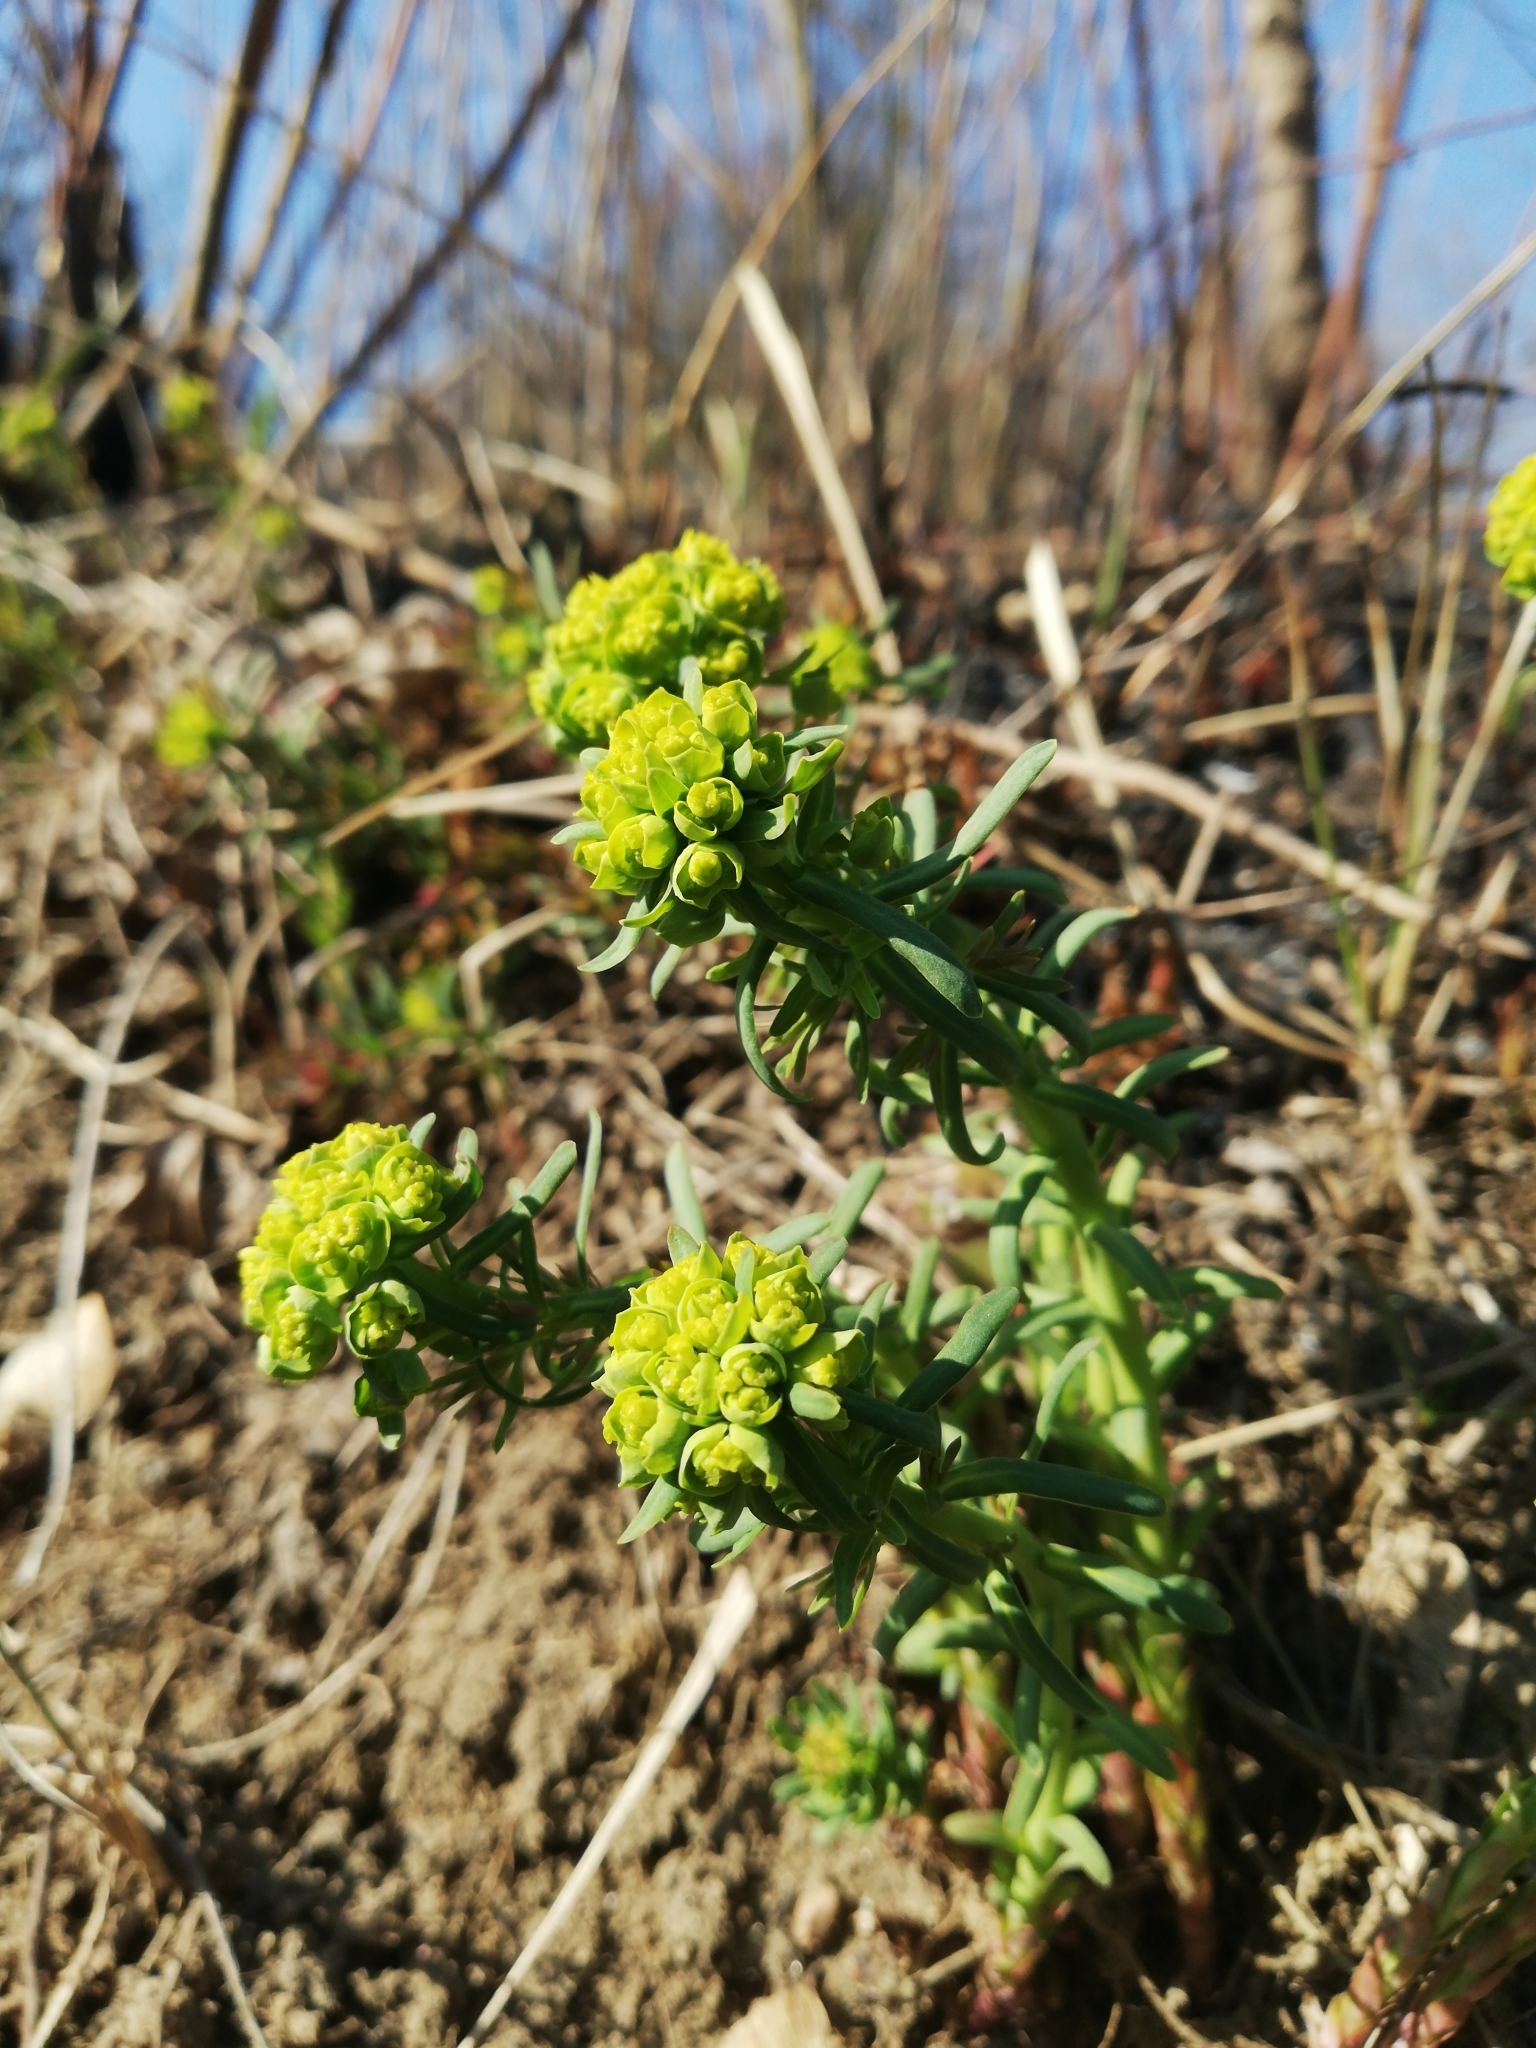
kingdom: Plantae
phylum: Tracheophyta
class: Magnoliopsida
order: Malpighiales
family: Euphorbiaceae
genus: Euphorbia
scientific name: Euphorbia cyparissias
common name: Cypress spurge
